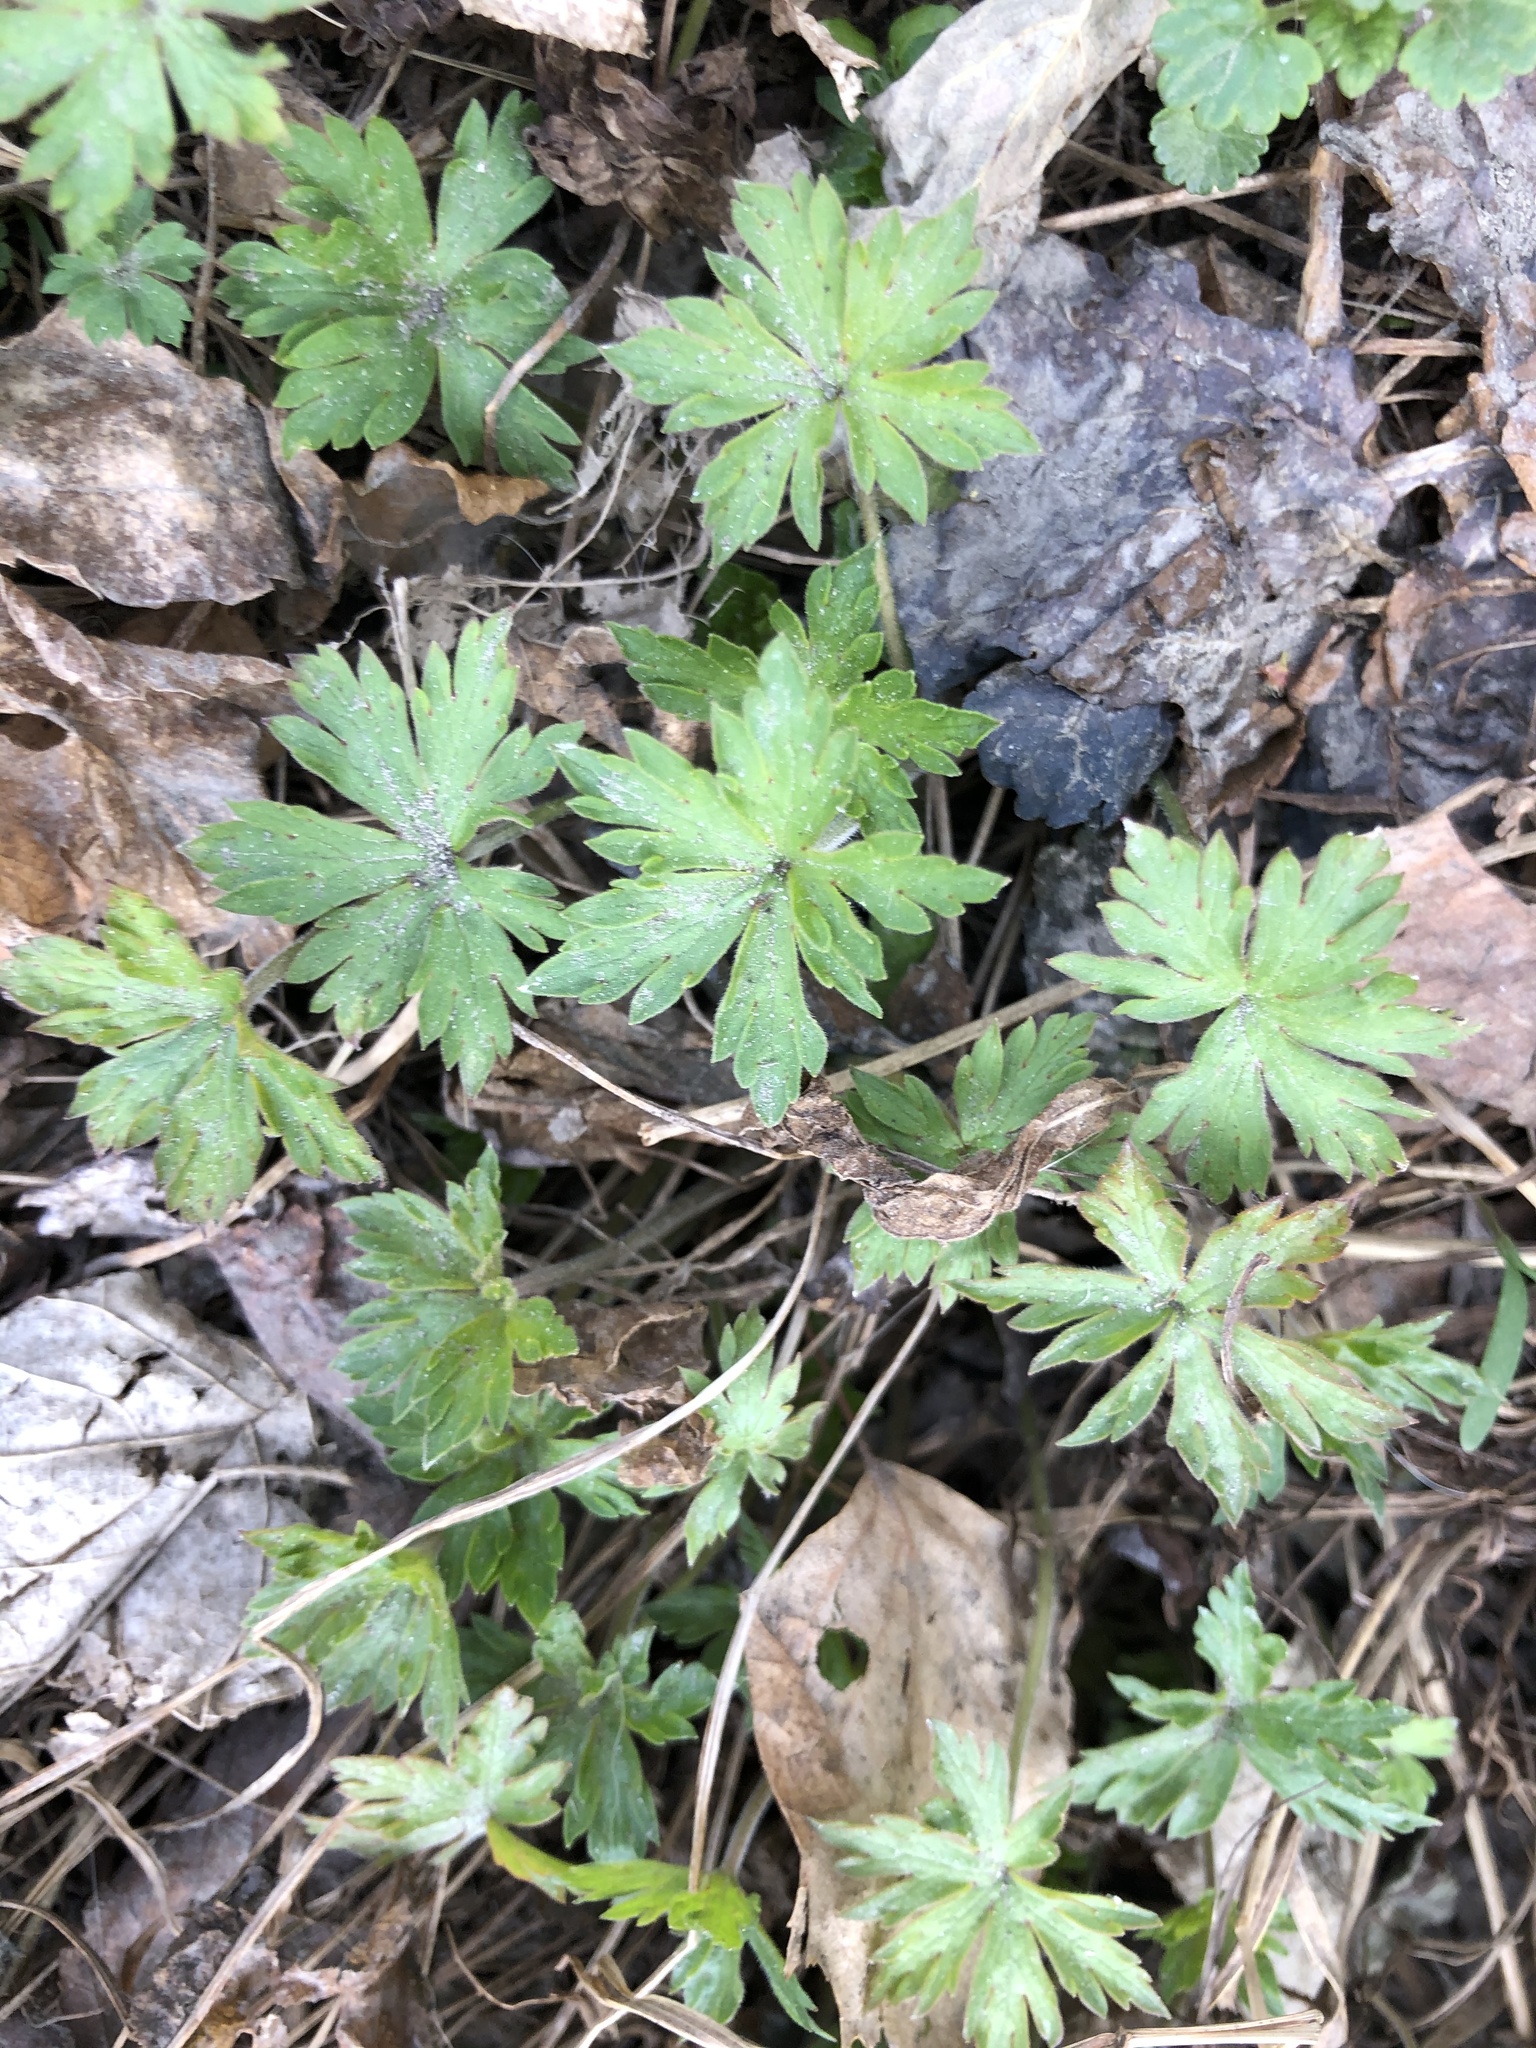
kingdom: Plantae
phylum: Tracheophyta
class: Magnoliopsida
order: Geraniales
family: Geraniaceae
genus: Geranium
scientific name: Geranium sibiricum
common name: Siberian crane's-bill
